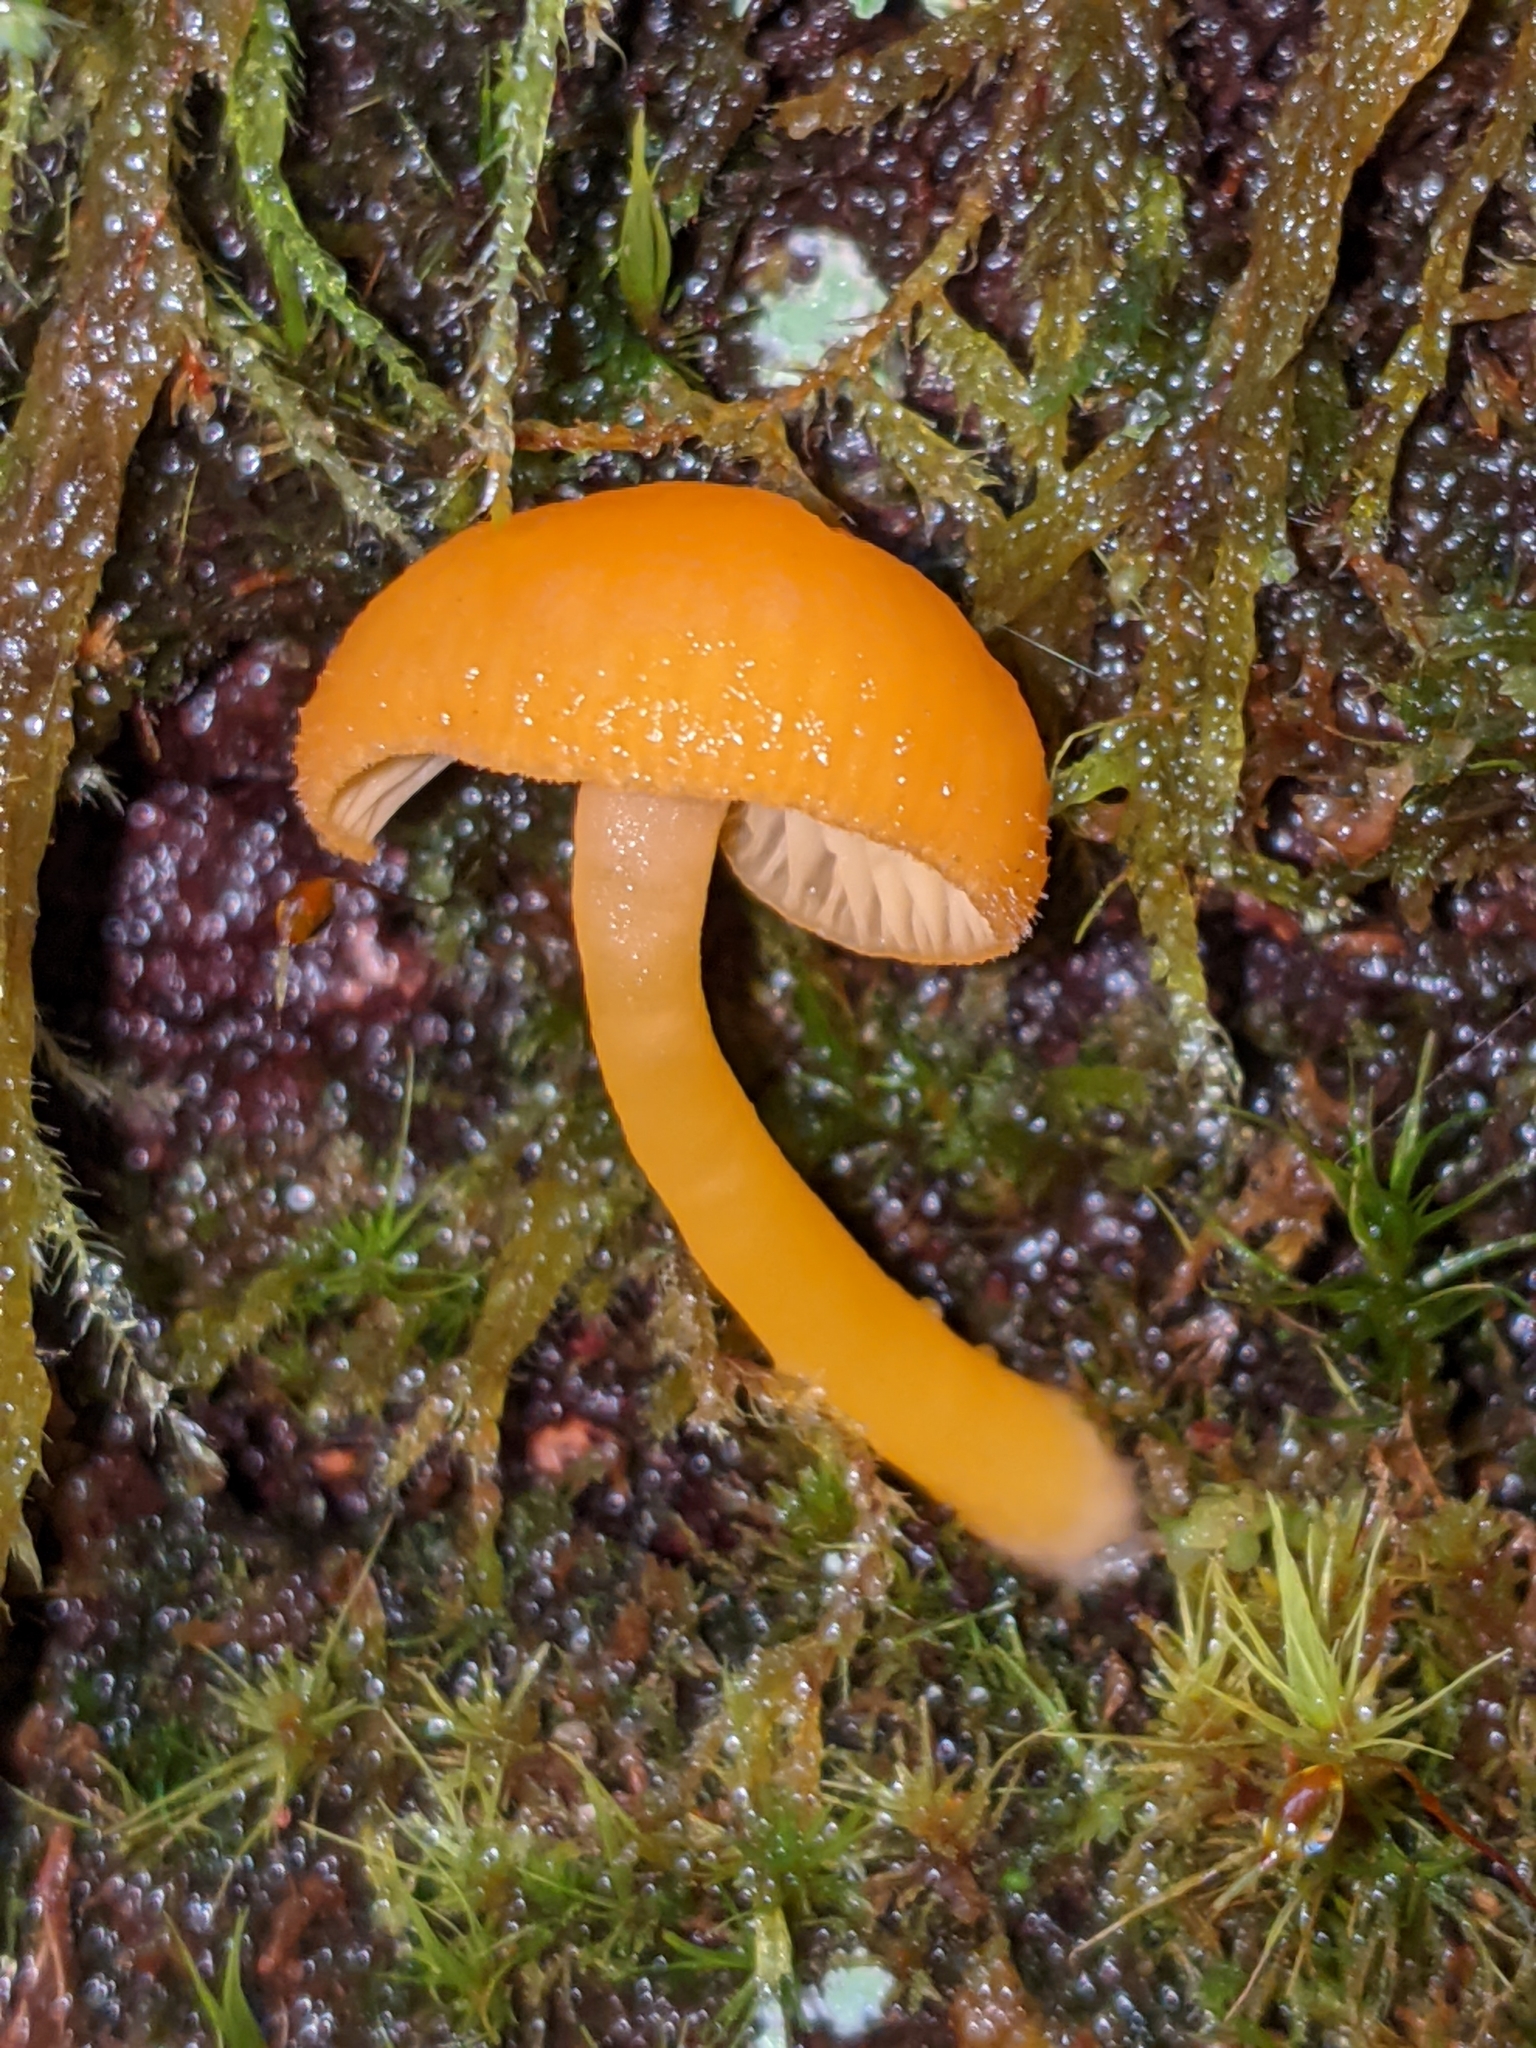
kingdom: Fungi
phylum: Basidiomycota
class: Agaricomycetes
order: Agaricales
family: Hygrophoraceae
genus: Chrysomphalina
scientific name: Chrysomphalina aurantiaca
